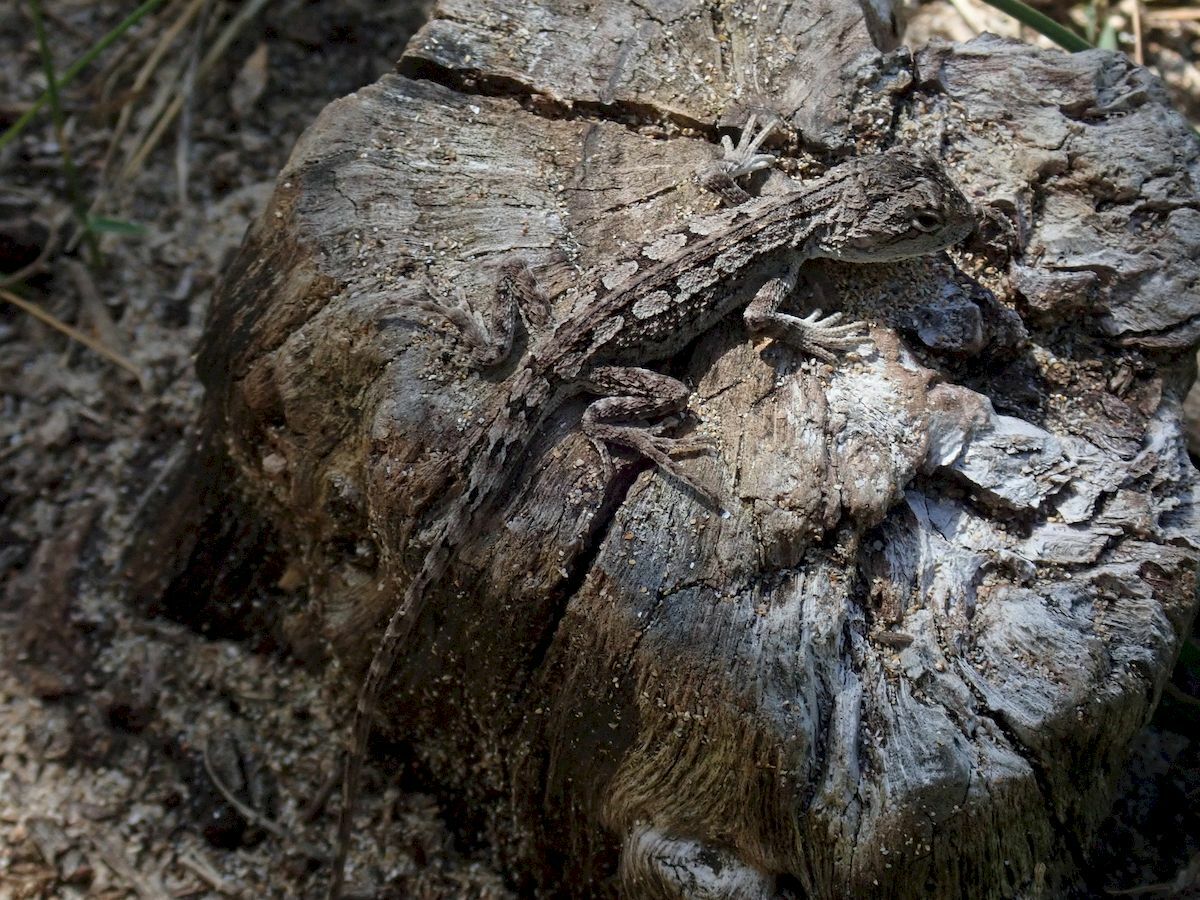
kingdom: Animalia
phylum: Chordata
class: Squamata
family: Agamidae
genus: Amphibolurus
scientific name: Amphibolurus muricatus
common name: Jacky lizard
